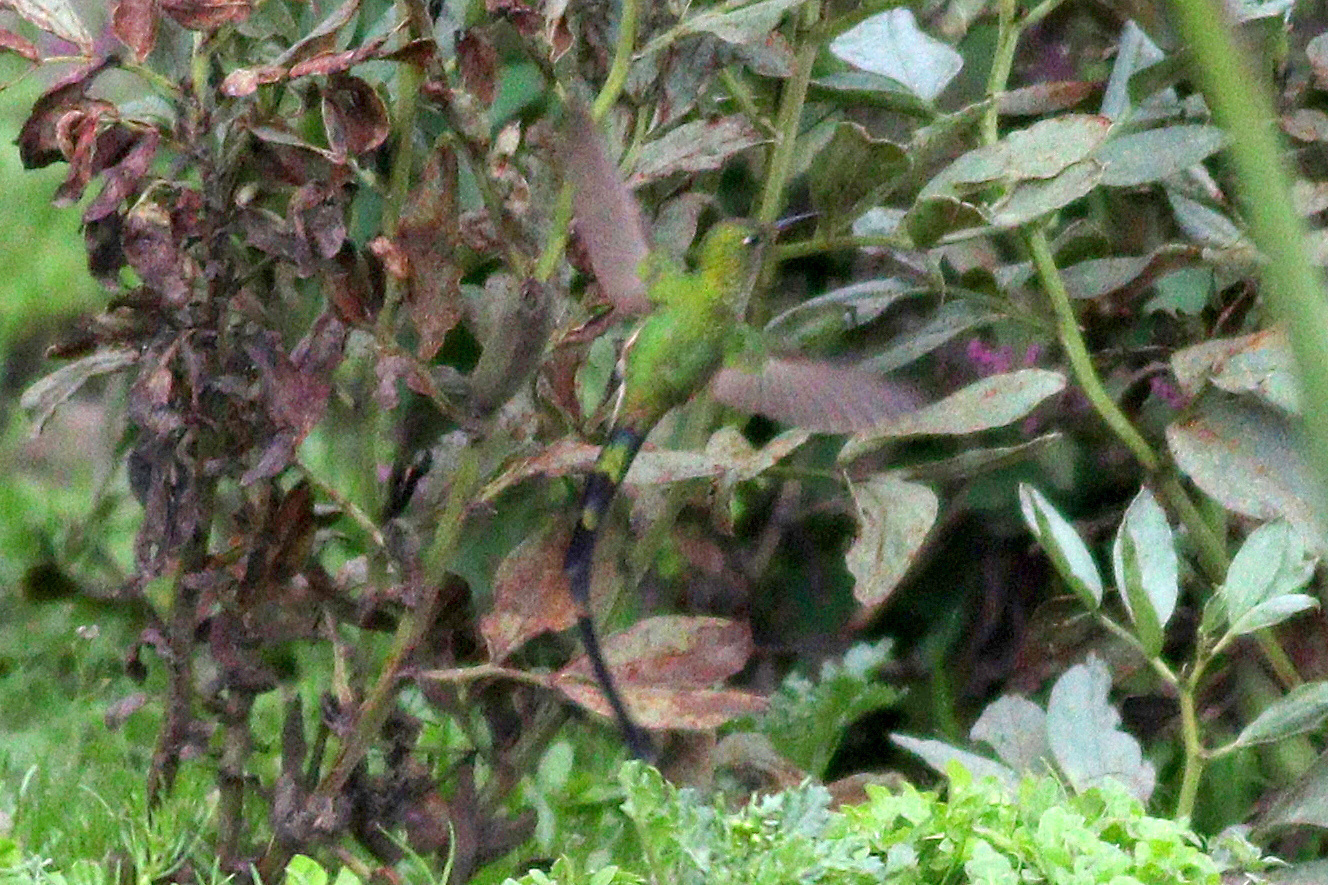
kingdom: Animalia
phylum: Chordata
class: Aves
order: Apodiformes
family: Trochilidae
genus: Lesbia
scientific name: Lesbia victoriae
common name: Black-tailed trainbearer
